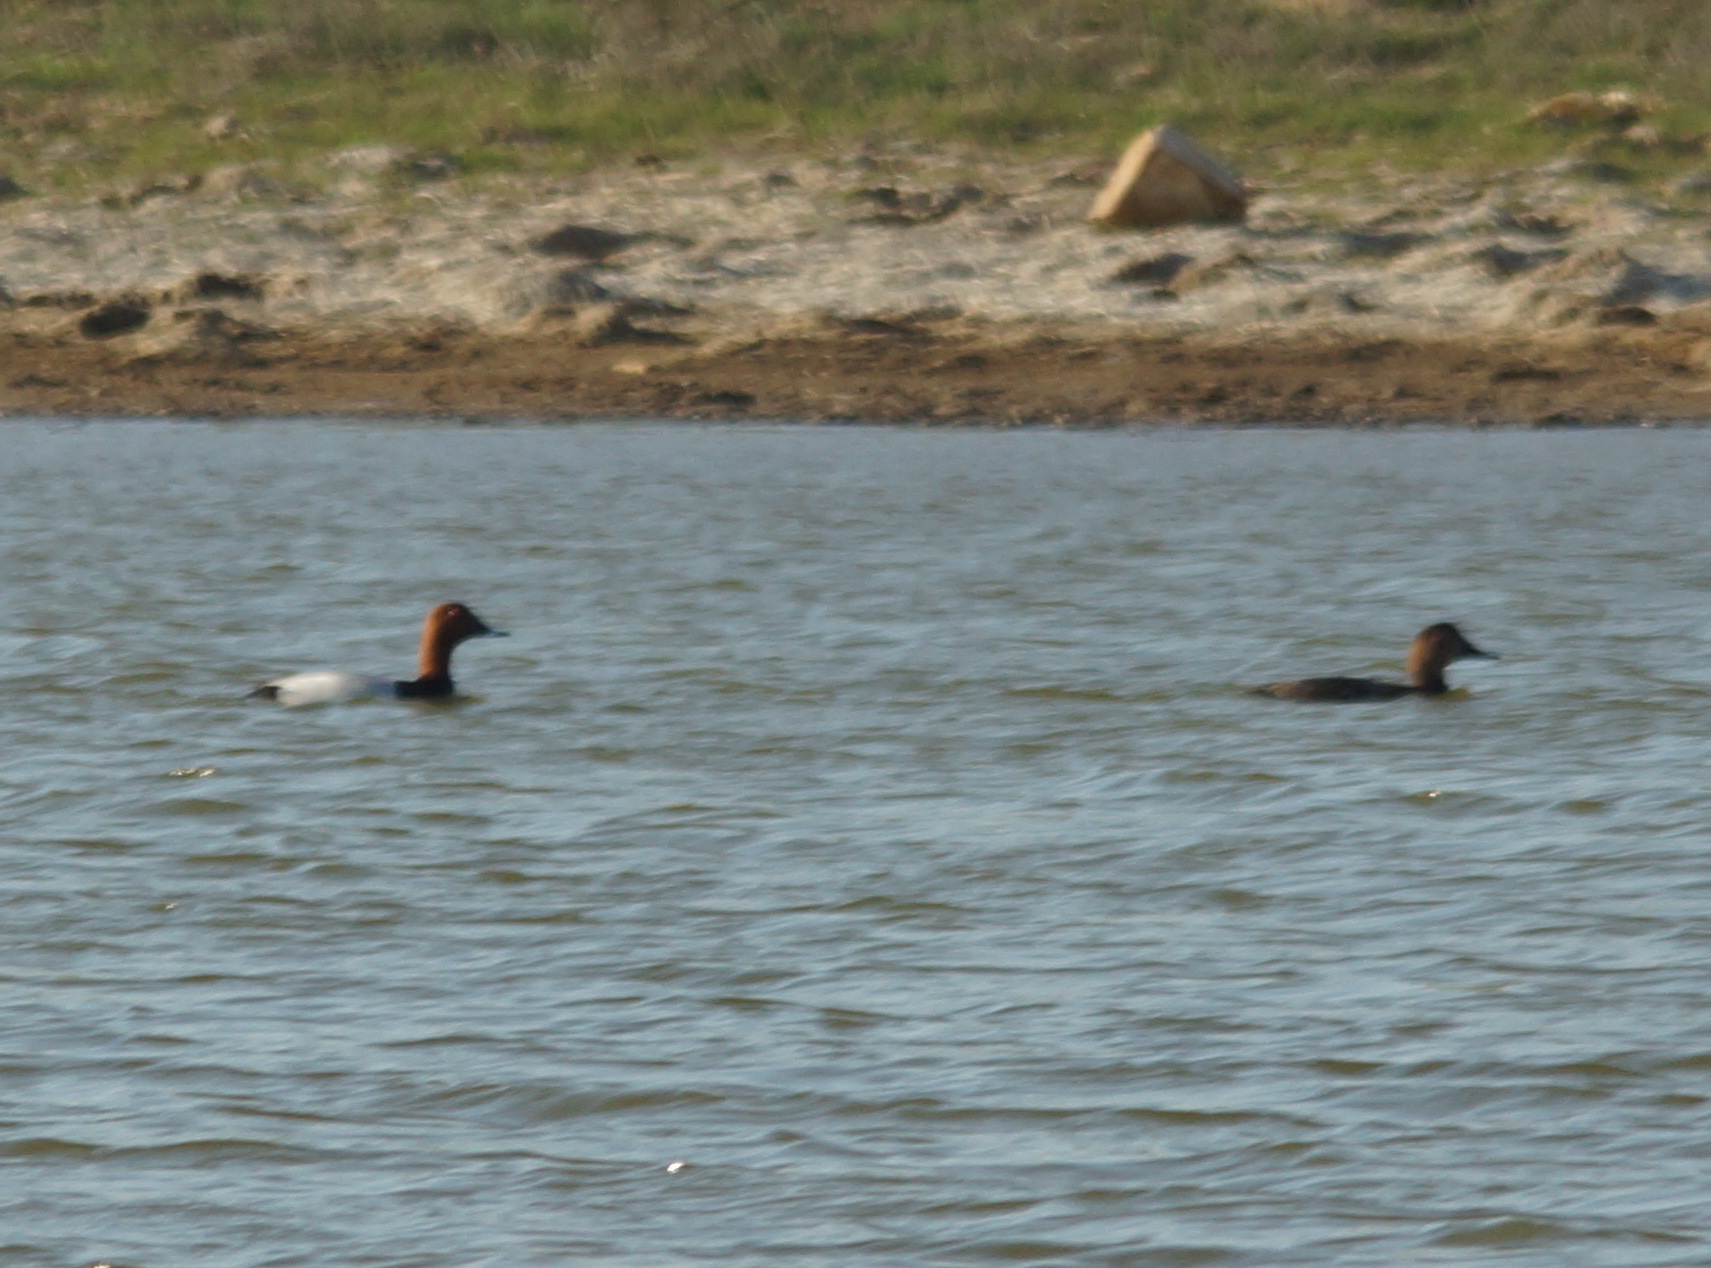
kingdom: Animalia
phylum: Chordata
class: Aves
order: Anseriformes
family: Anatidae
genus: Aythya
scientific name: Aythya ferina
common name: Common pochard
